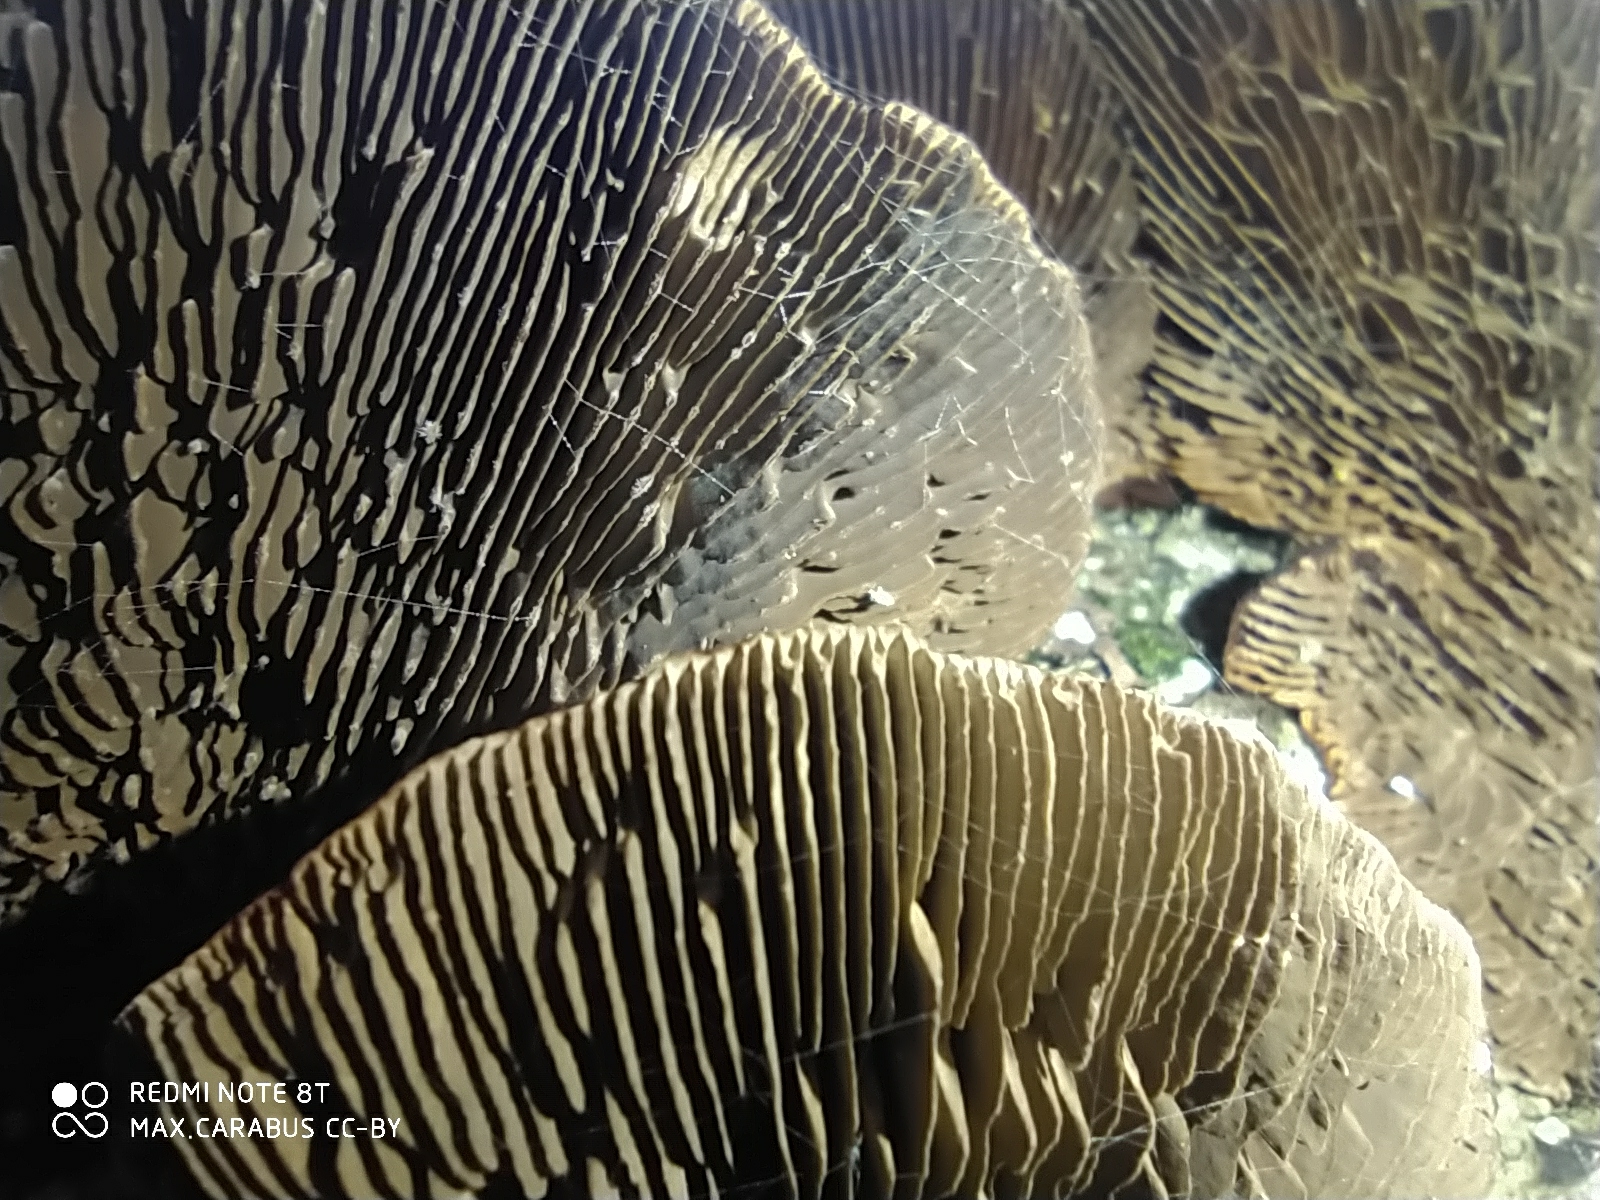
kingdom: Fungi
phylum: Basidiomycota
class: Agaricomycetes
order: Polyporales
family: Polyporaceae
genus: Daedaleopsis
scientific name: Daedaleopsis tricolor
